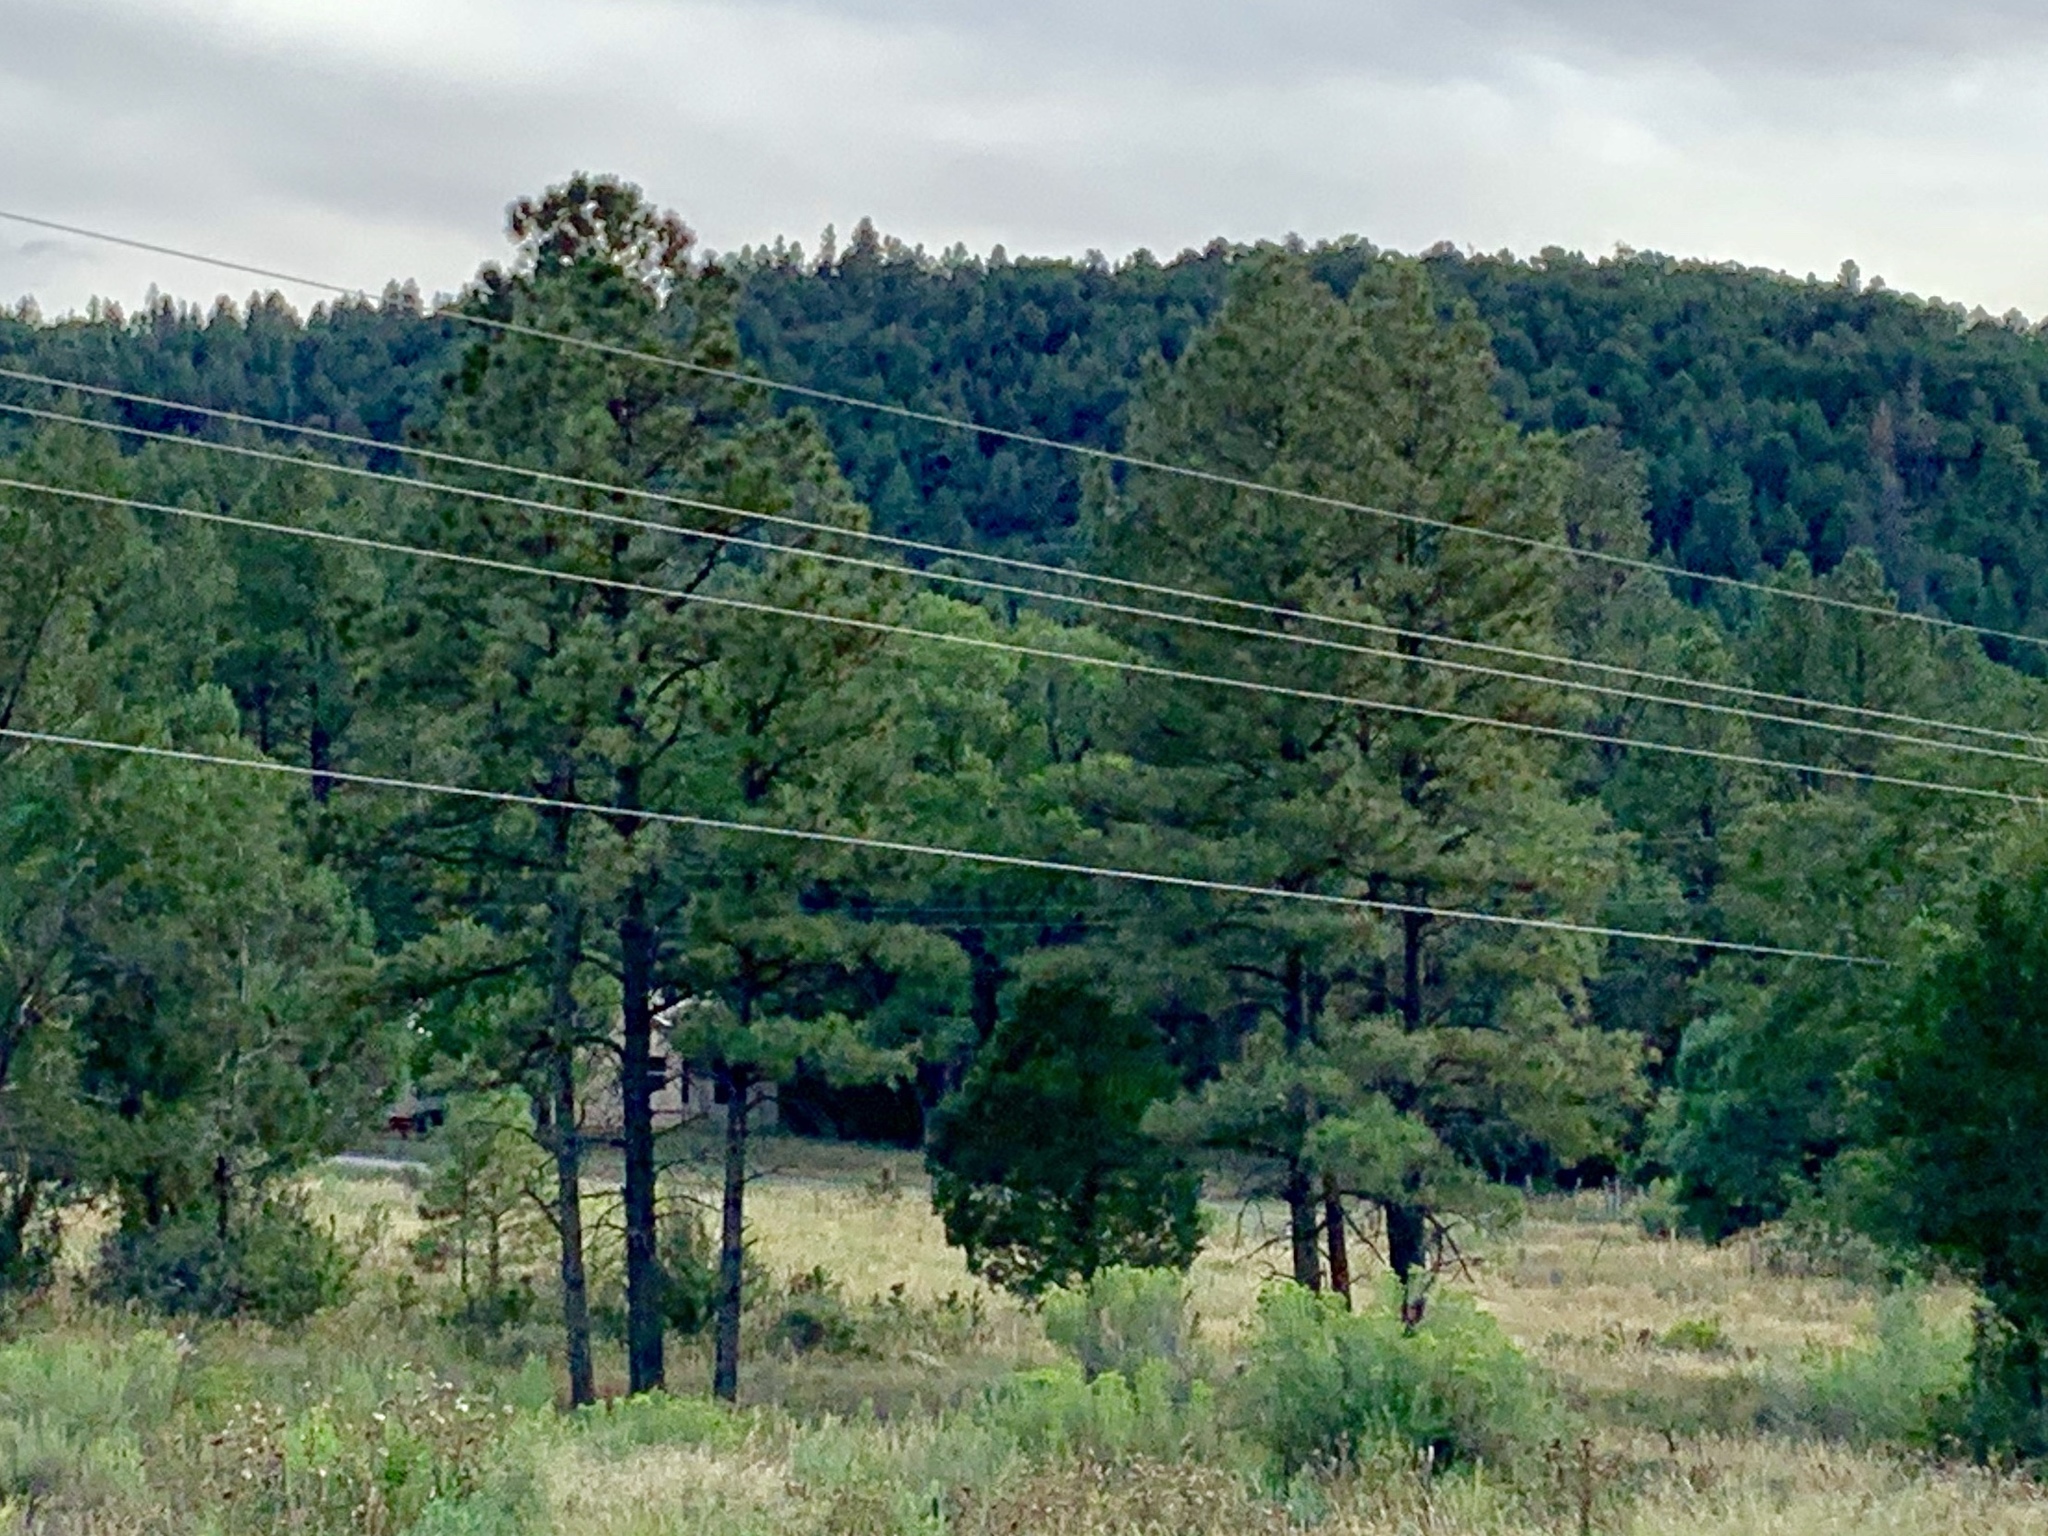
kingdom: Plantae
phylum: Tracheophyta
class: Pinopsida
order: Pinales
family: Pinaceae
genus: Pinus
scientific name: Pinus ponderosa
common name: Western yellow-pine
